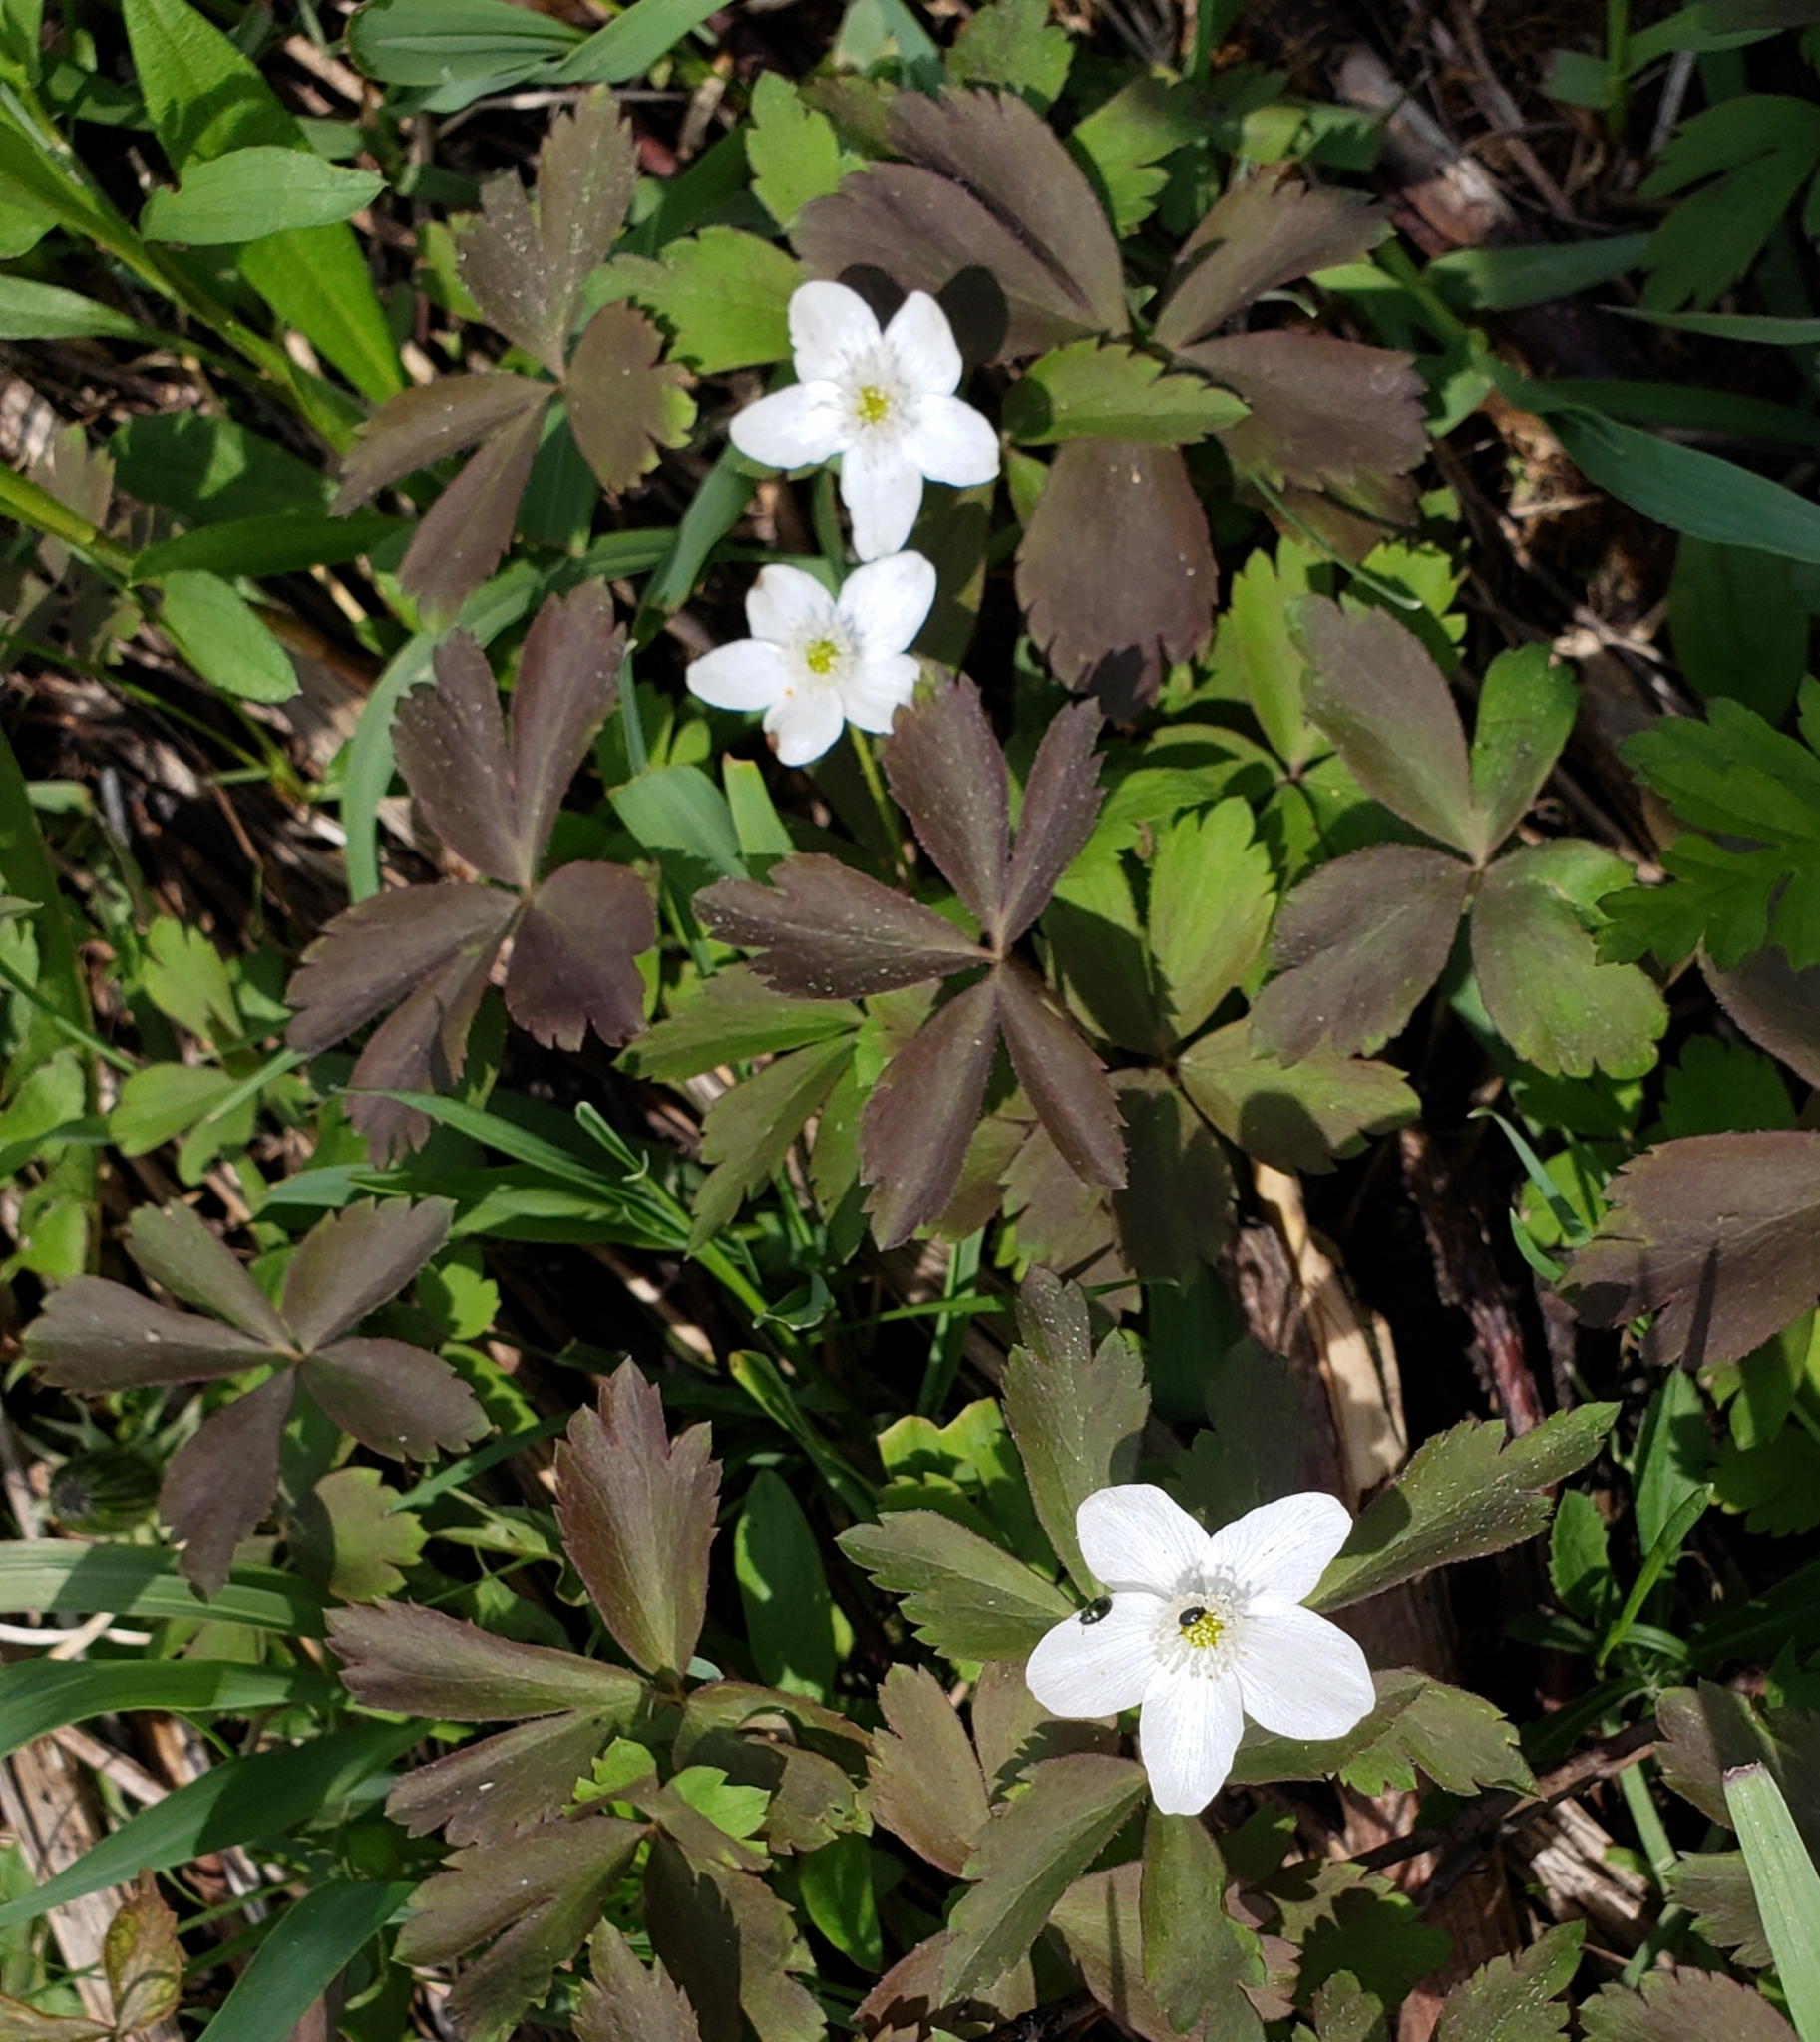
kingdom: Plantae
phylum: Tracheophyta
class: Magnoliopsida
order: Ranunculales
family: Ranunculaceae
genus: Anemone
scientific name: Anemone quinquefolia
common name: Wood anemone
